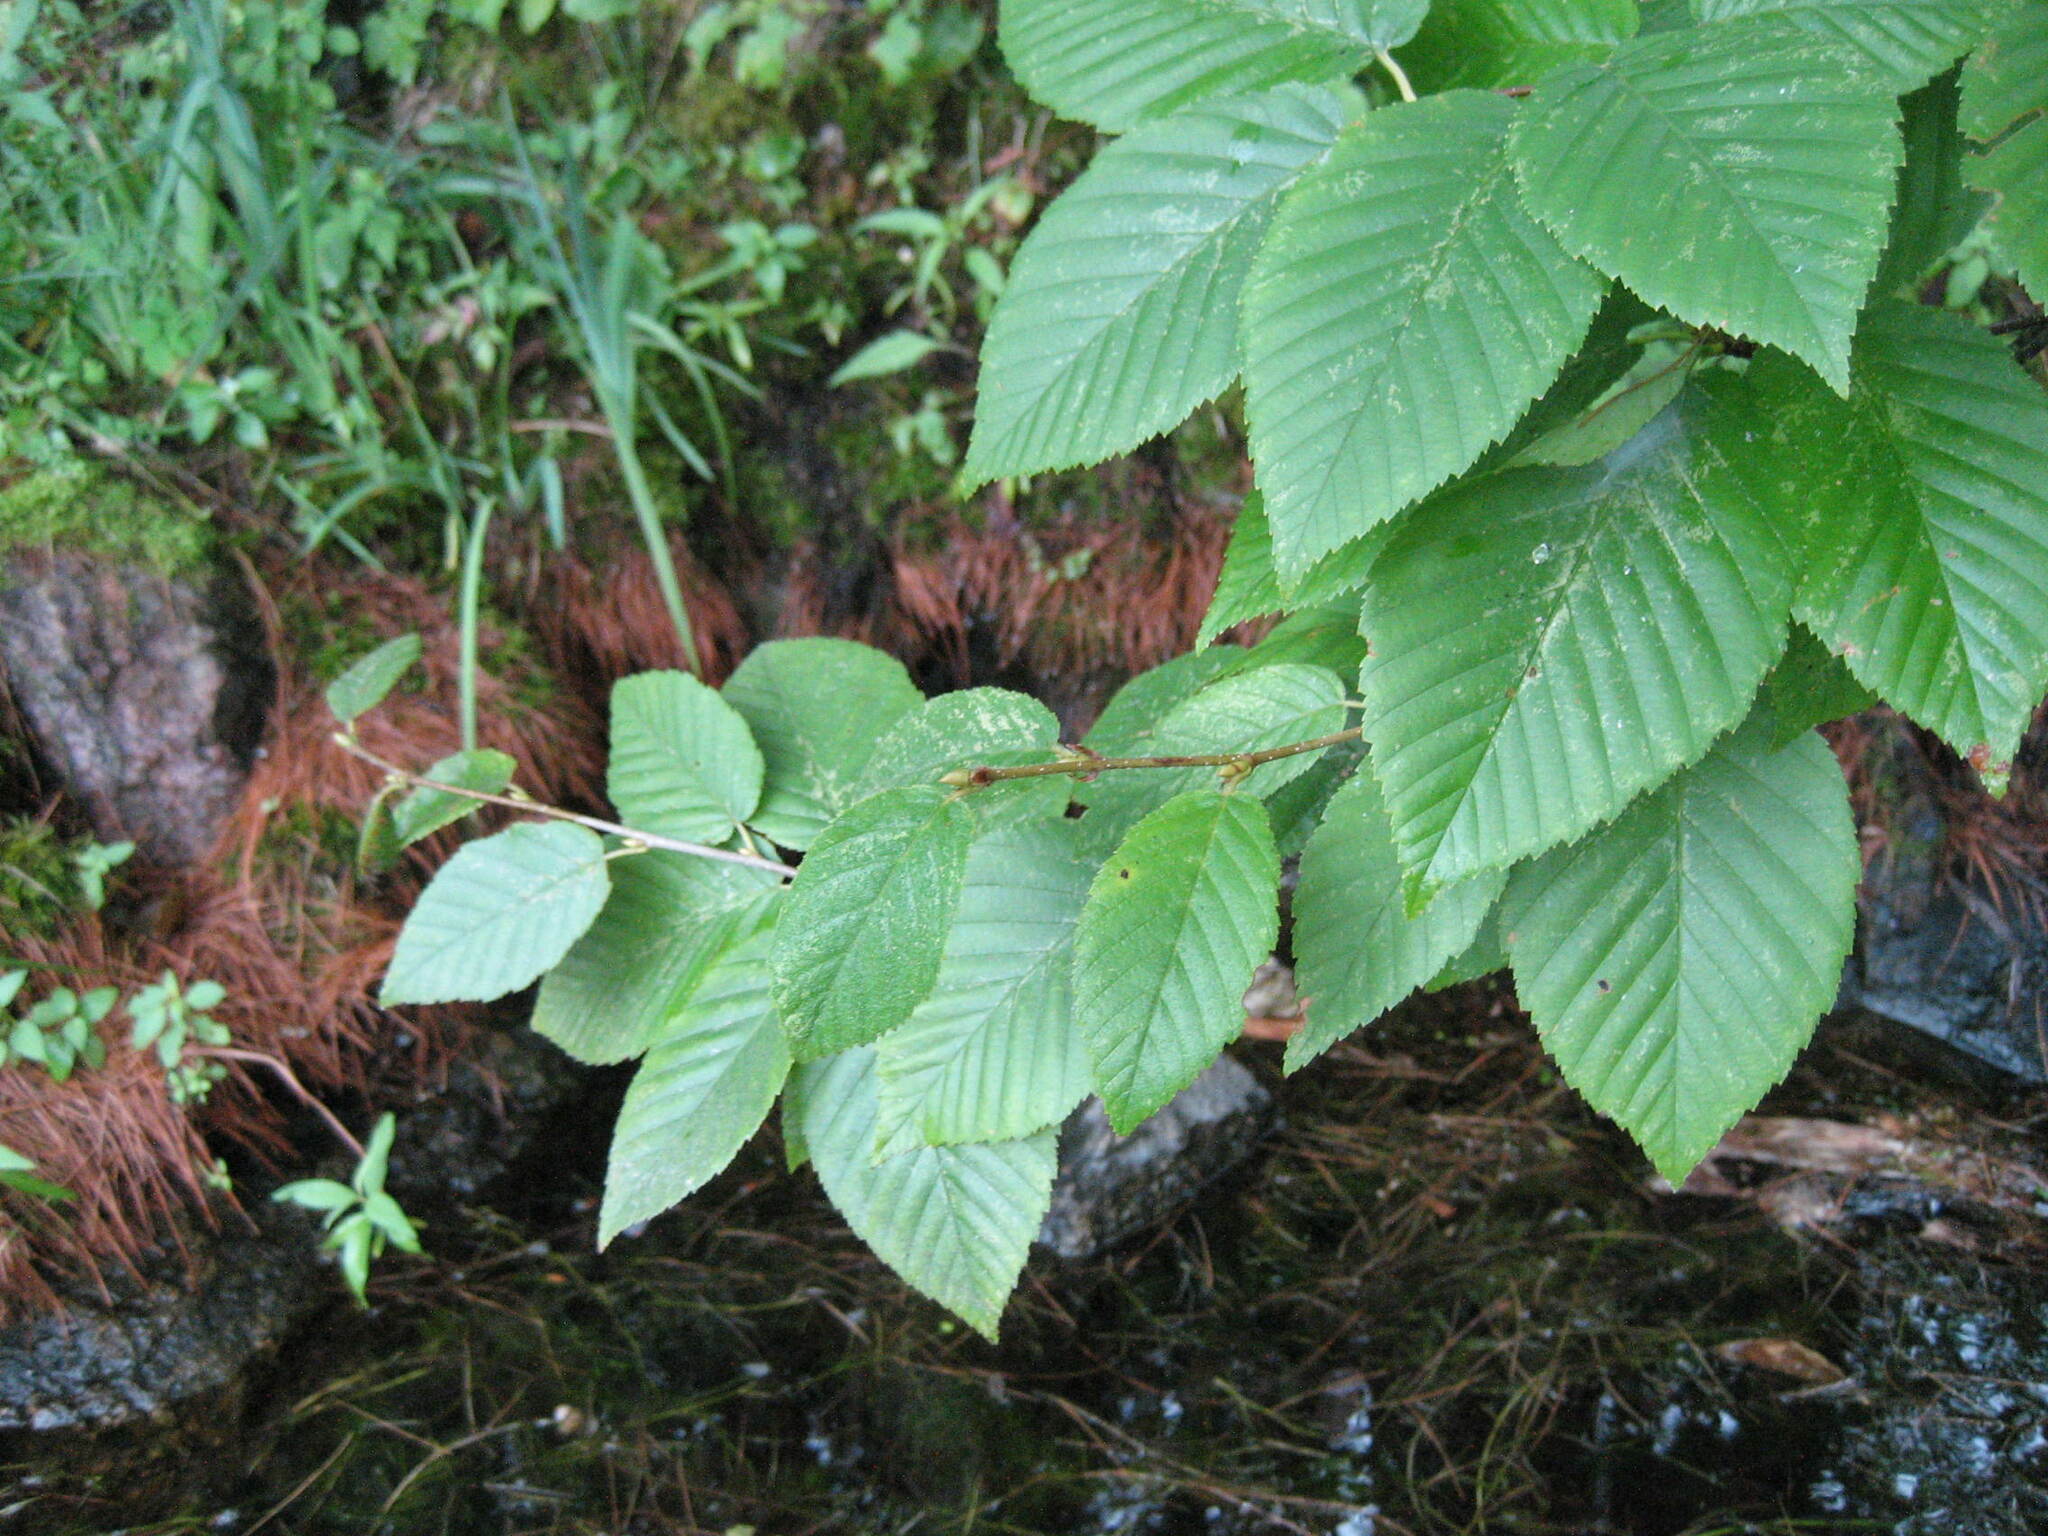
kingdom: Plantae
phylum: Tracheophyta
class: Magnoliopsida
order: Fagales
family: Betulaceae
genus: Betula
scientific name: Betula alleghaniensis
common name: Yellow birch
